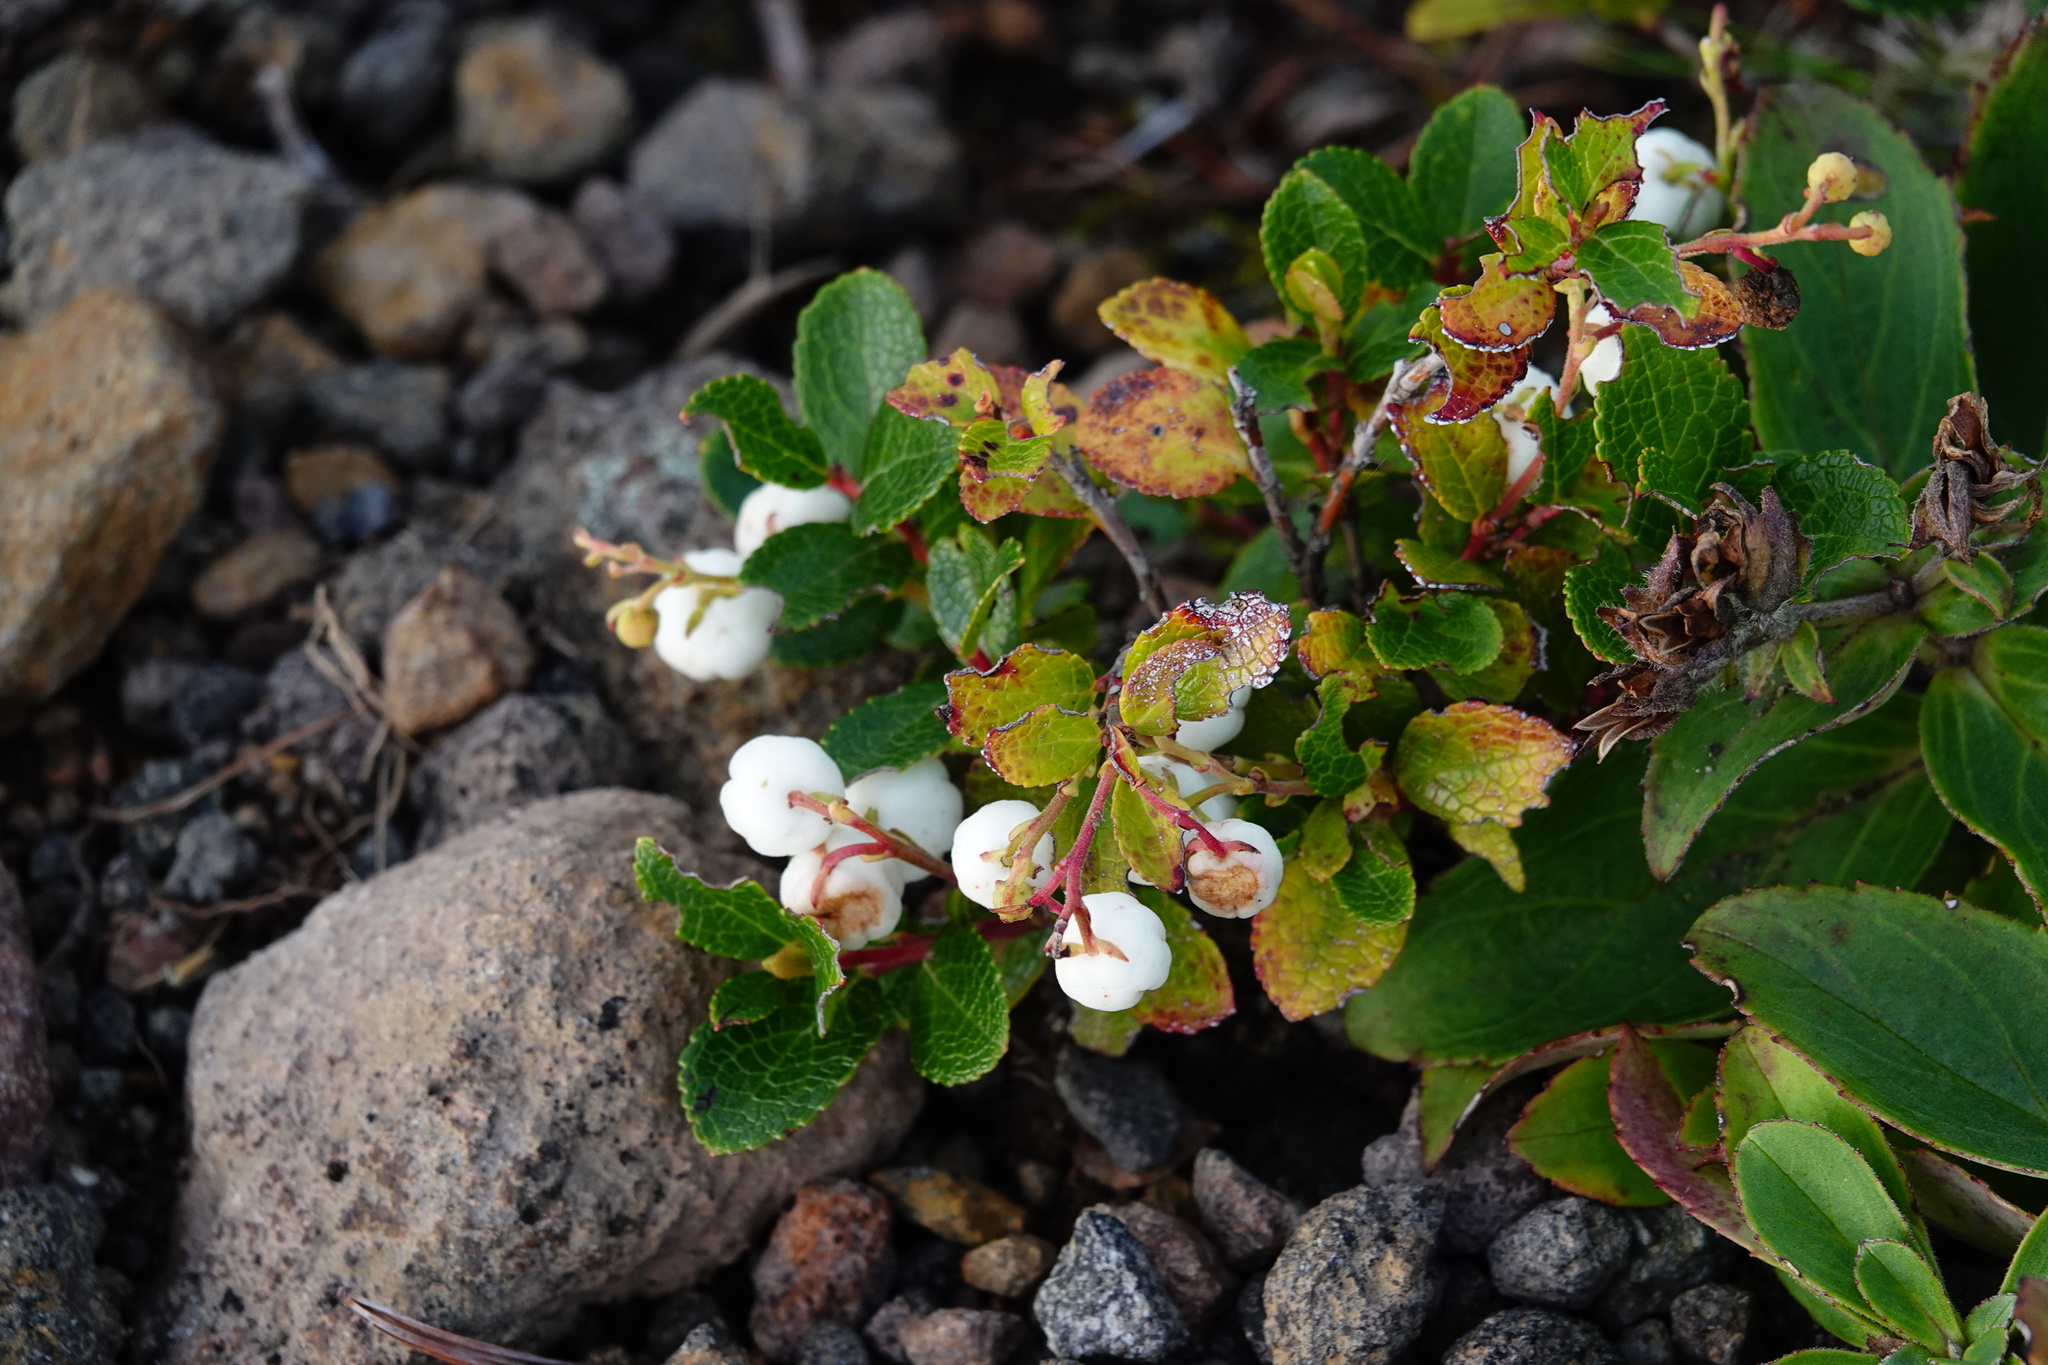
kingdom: Plantae
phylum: Tracheophyta
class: Magnoliopsida
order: Ericales
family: Ericaceae
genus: Gaultheria
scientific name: Gaultheria pyroloides
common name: Japanese wintergreen
